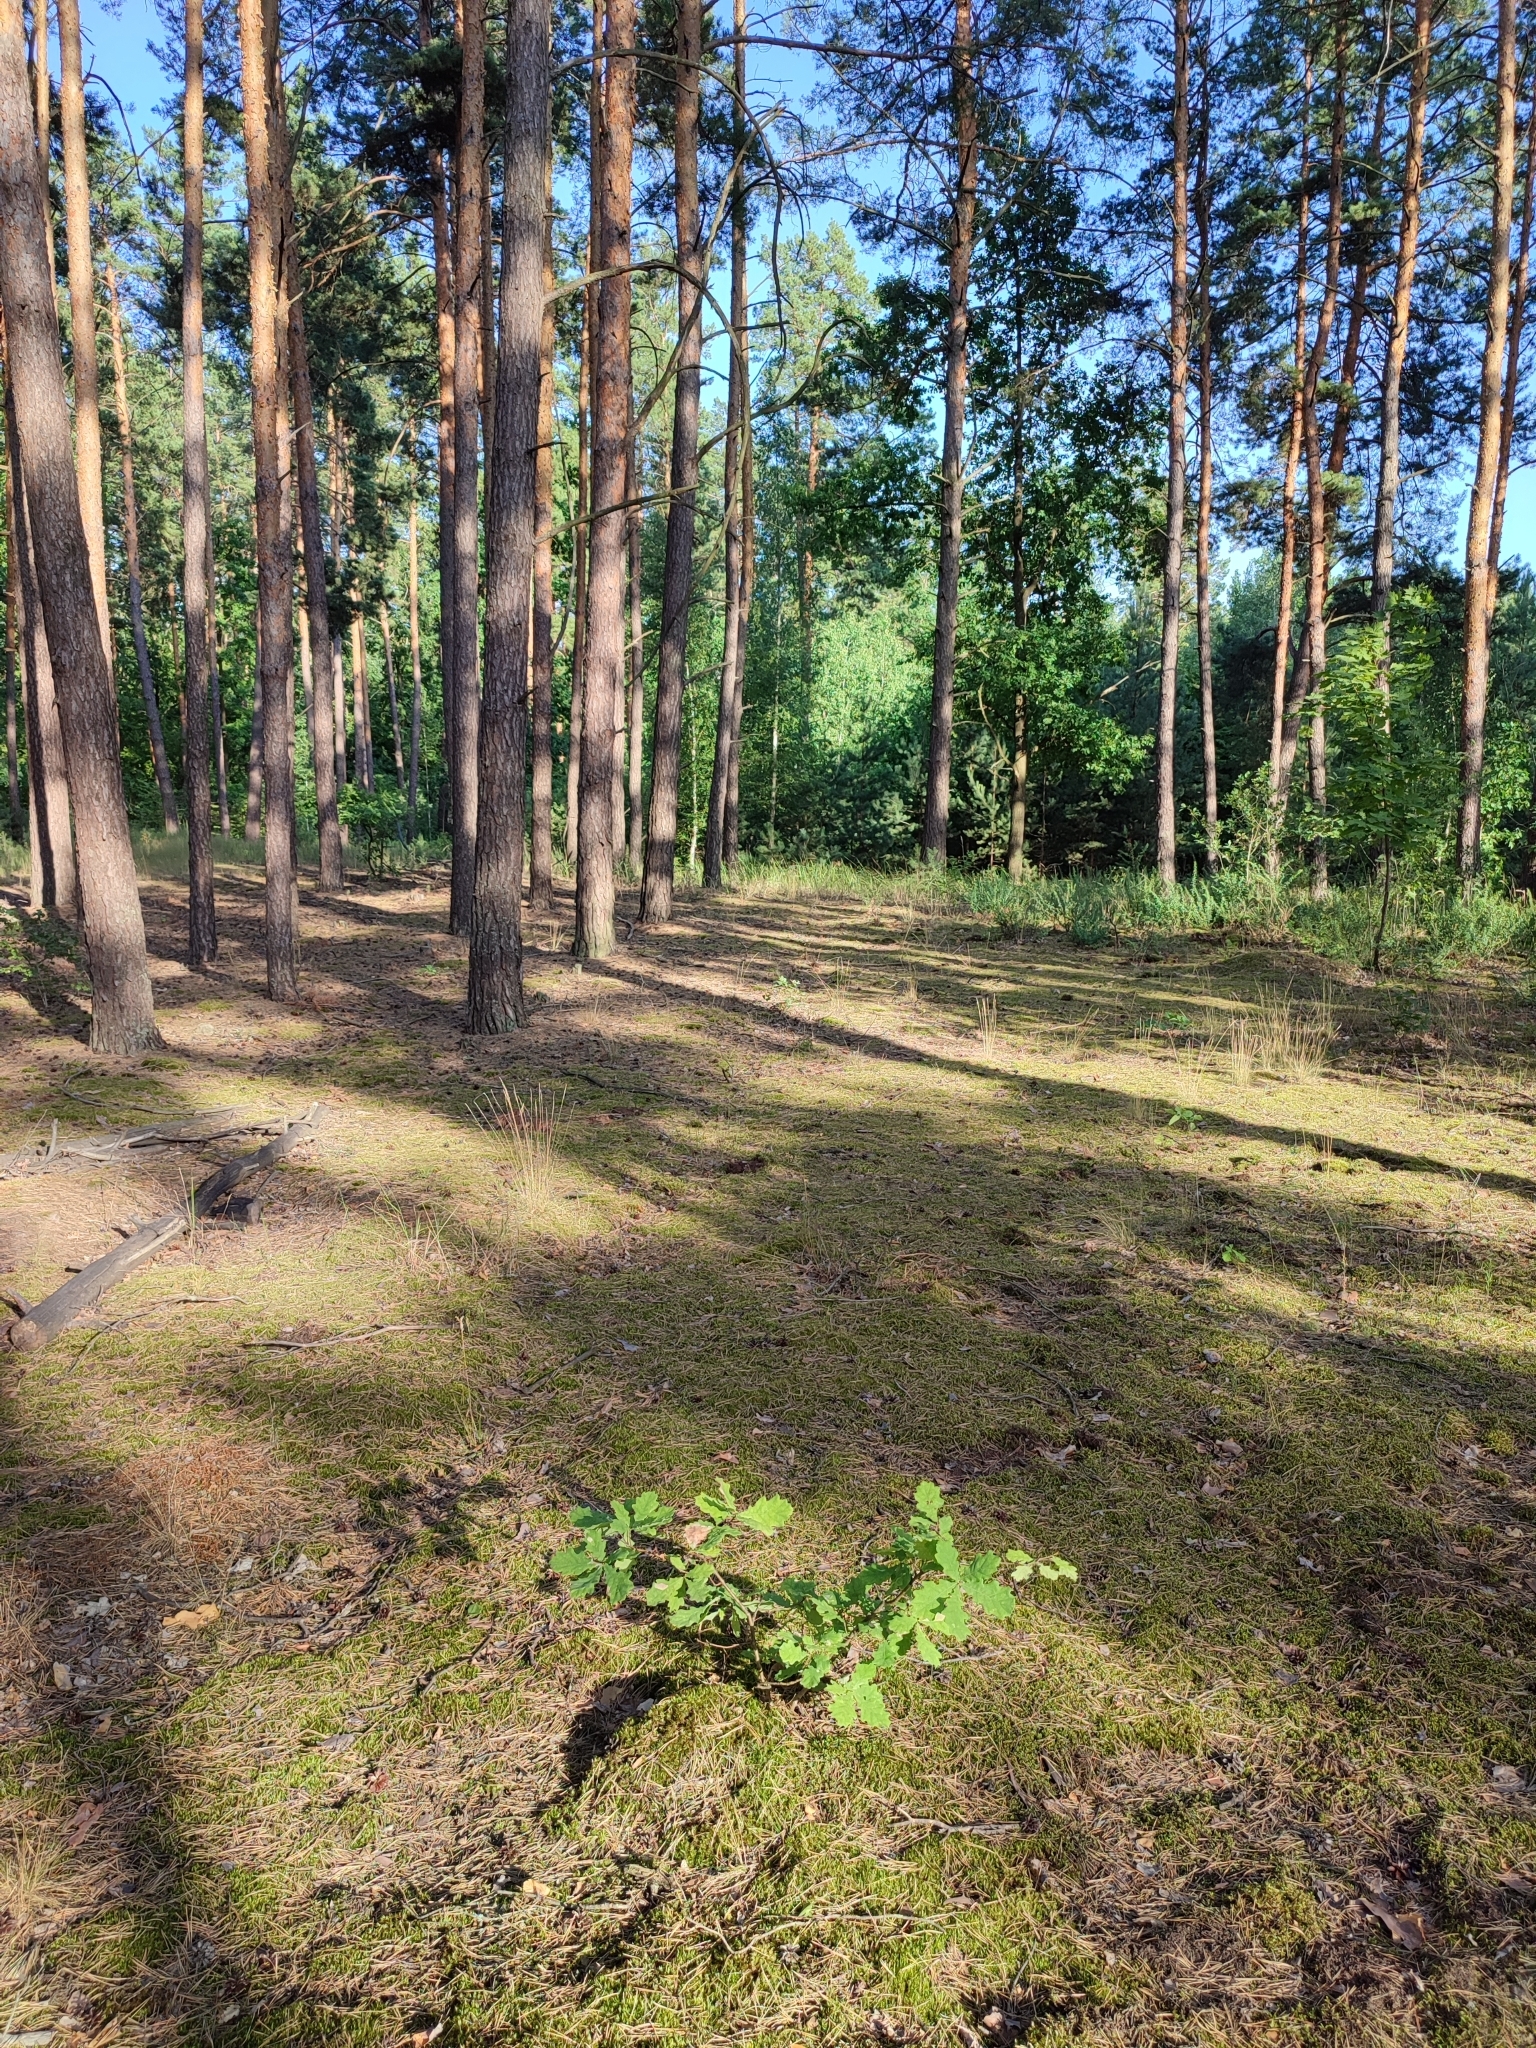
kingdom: Plantae
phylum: Tracheophyta
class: Magnoliopsida
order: Fagales
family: Fagaceae
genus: Quercus
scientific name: Quercus robur
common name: Pedunculate oak
